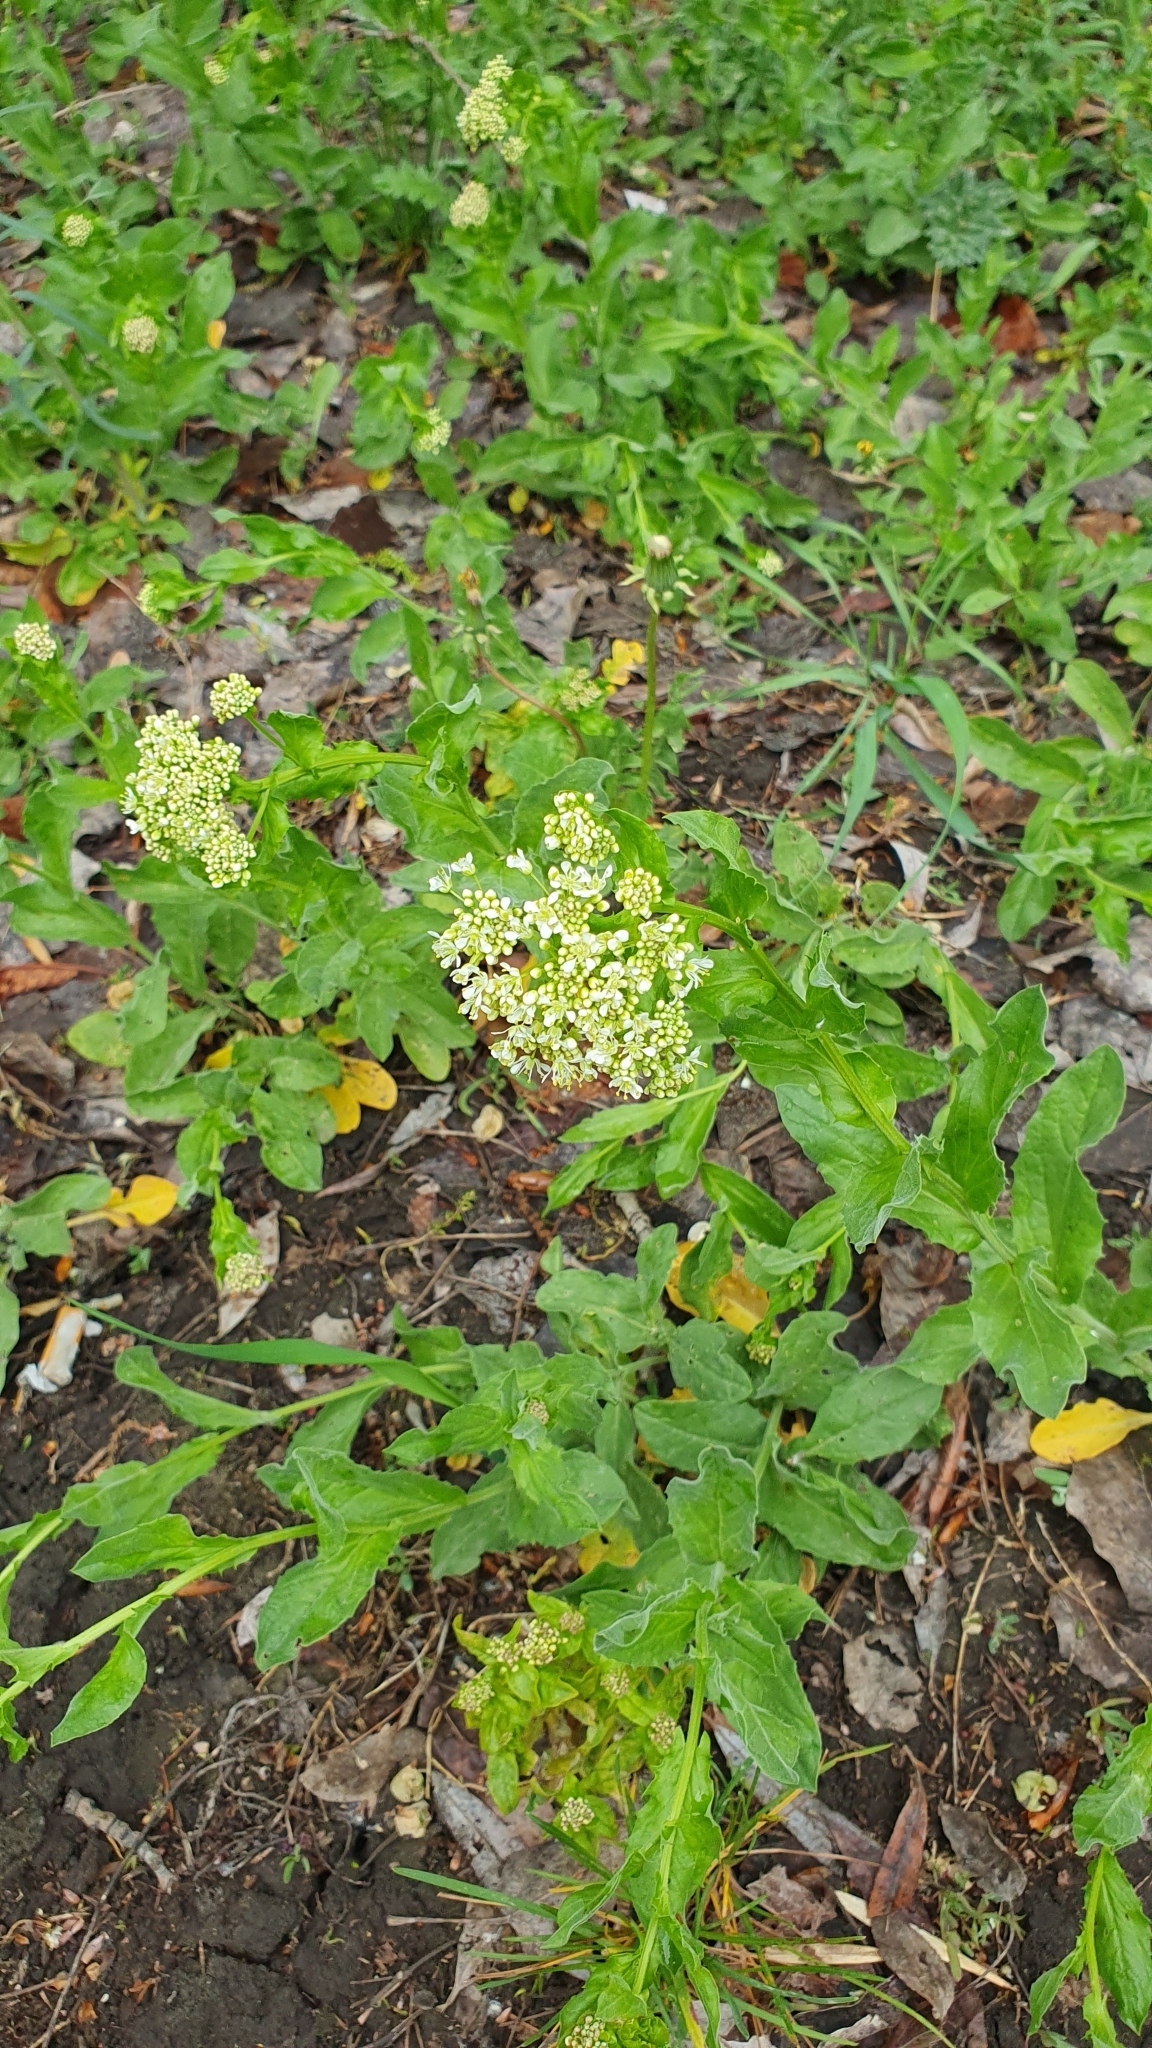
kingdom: Plantae
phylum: Tracheophyta
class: Magnoliopsida
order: Brassicales
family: Brassicaceae
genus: Lepidium
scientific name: Lepidium draba
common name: Hoary cress
